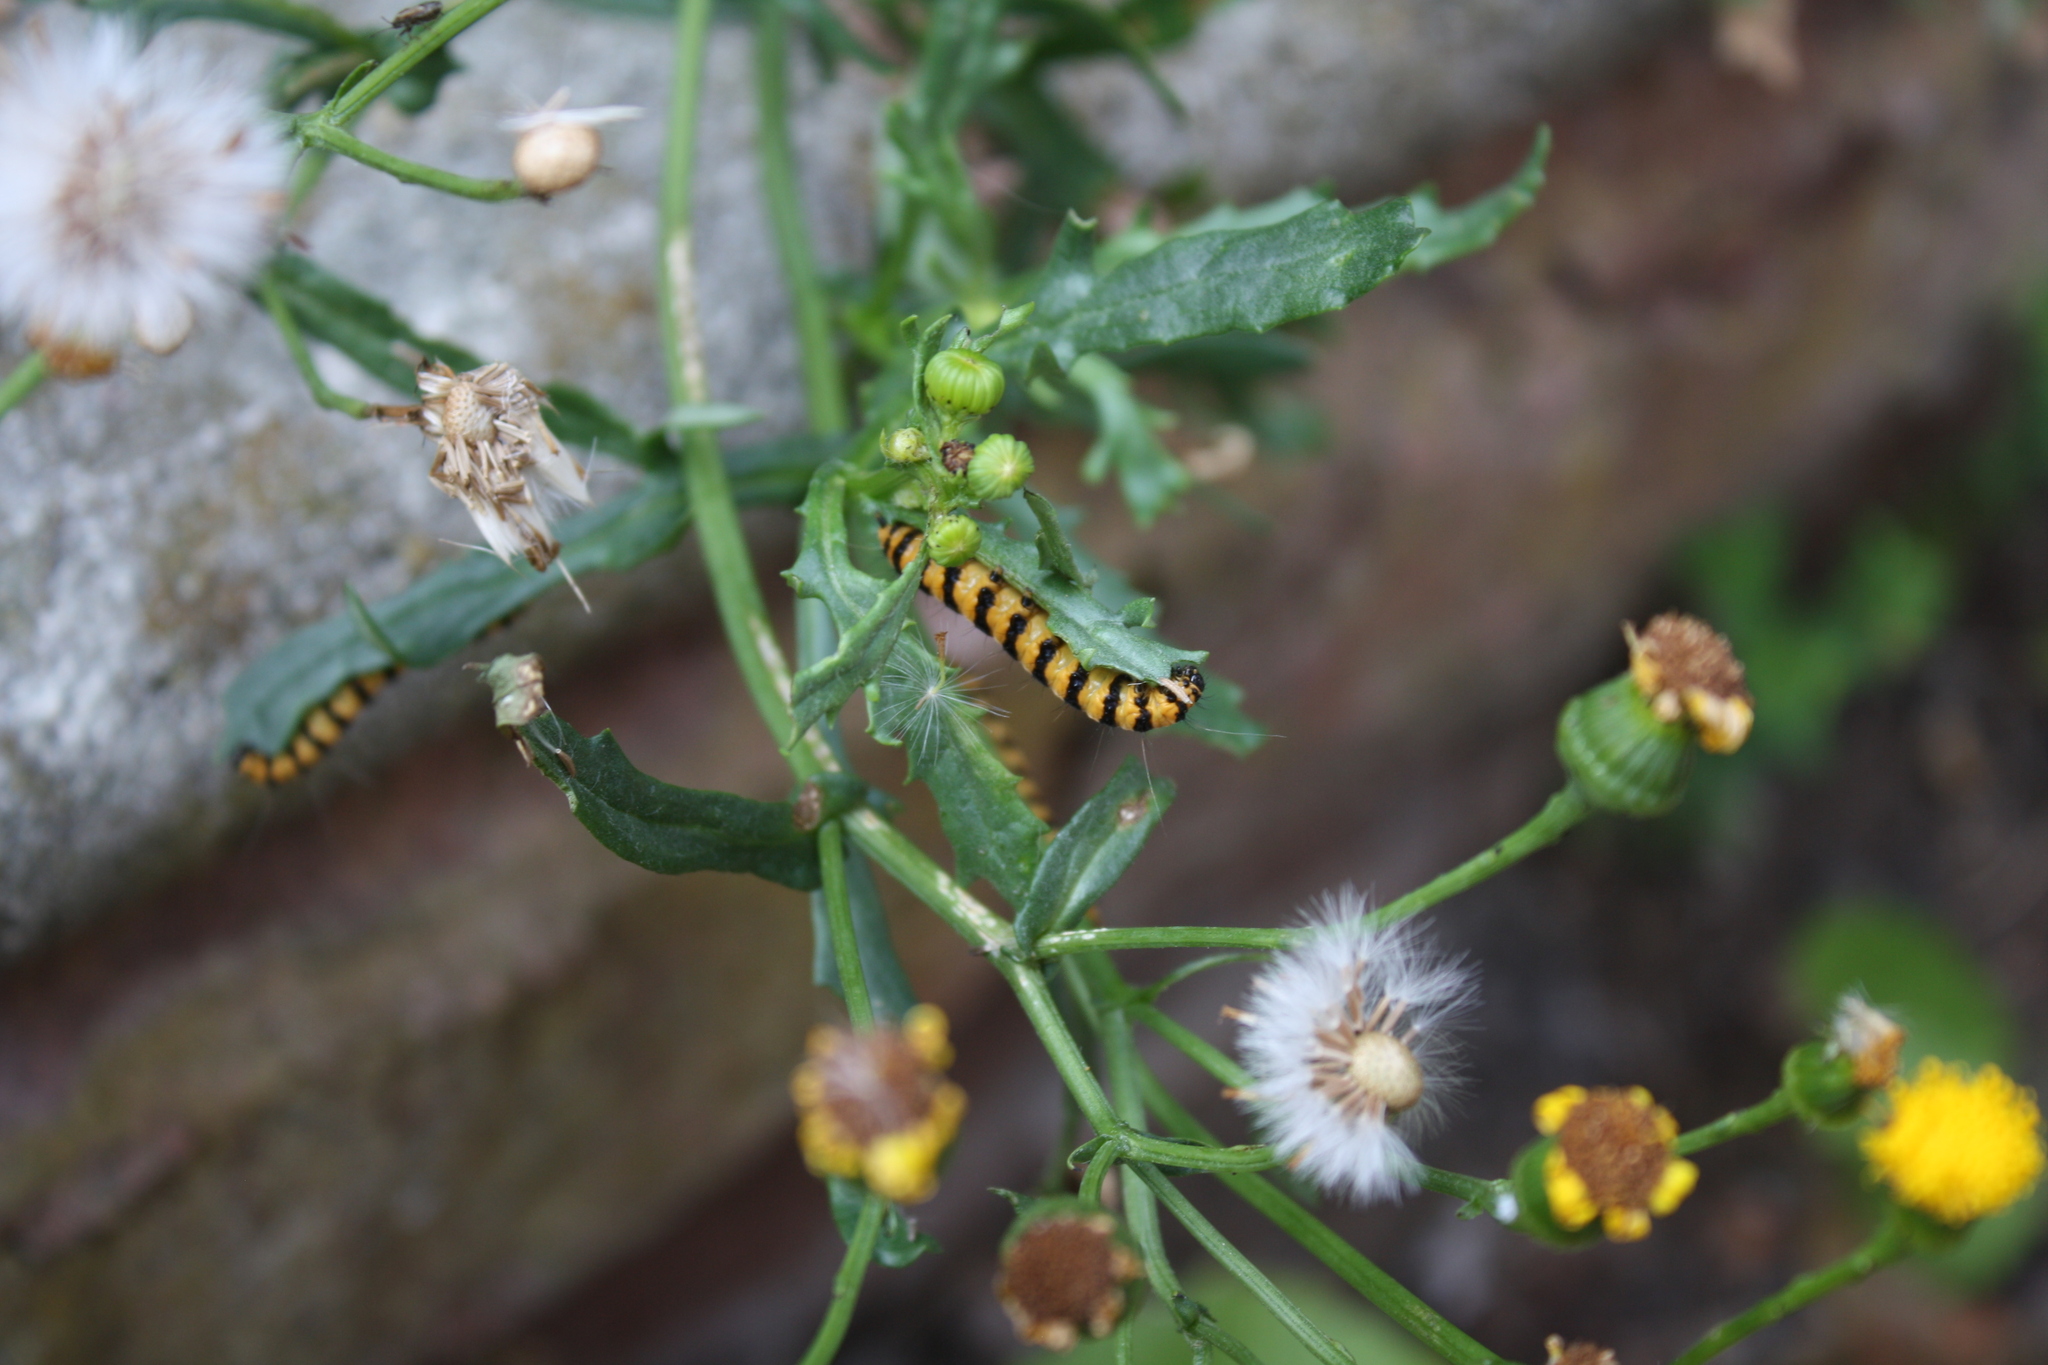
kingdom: Animalia
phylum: Arthropoda
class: Insecta
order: Lepidoptera
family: Erebidae
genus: Tyria
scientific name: Tyria jacobaeae
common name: Cinnabar
